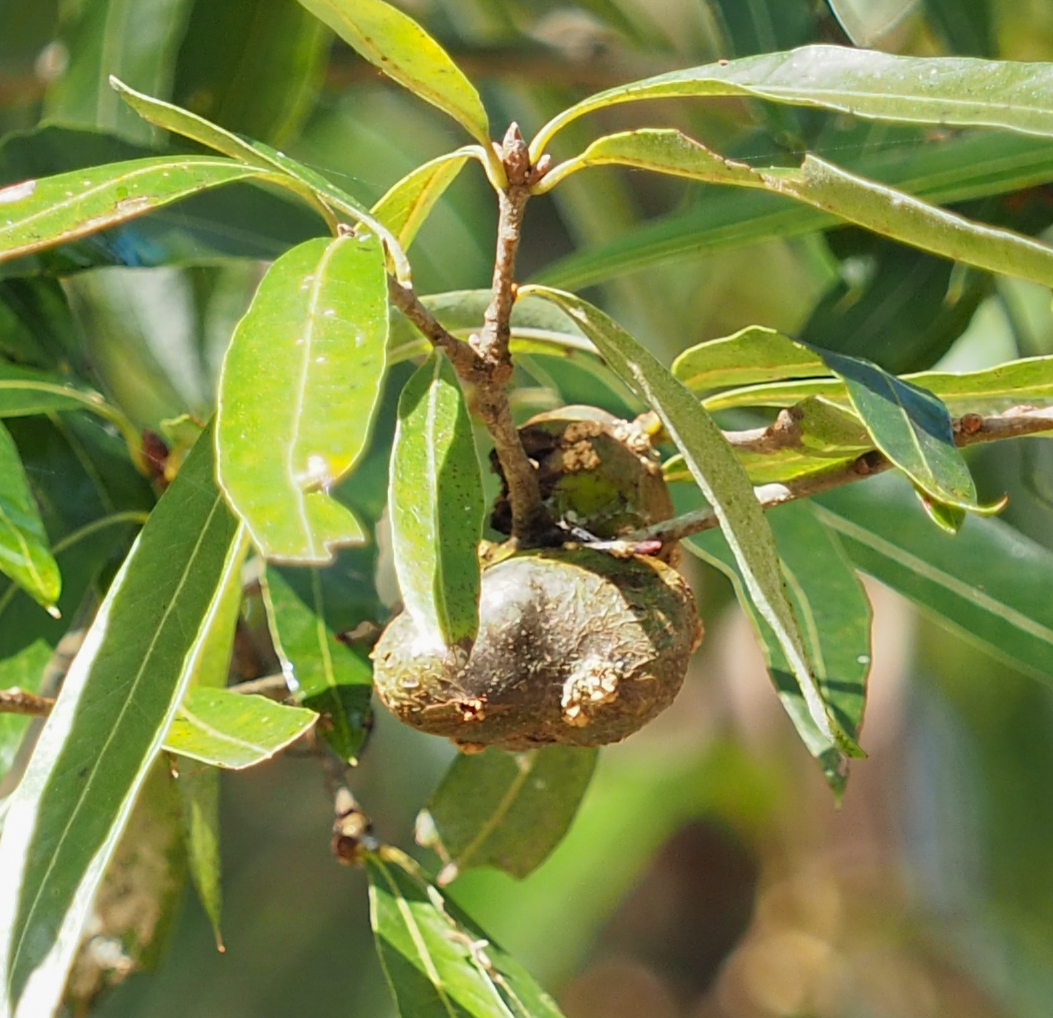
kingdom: Plantae
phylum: Tracheophyta
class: Magnoliopsida
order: Fagales
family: Fagaceae
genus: Quercus
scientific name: Quercus phellos
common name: Willow oak
